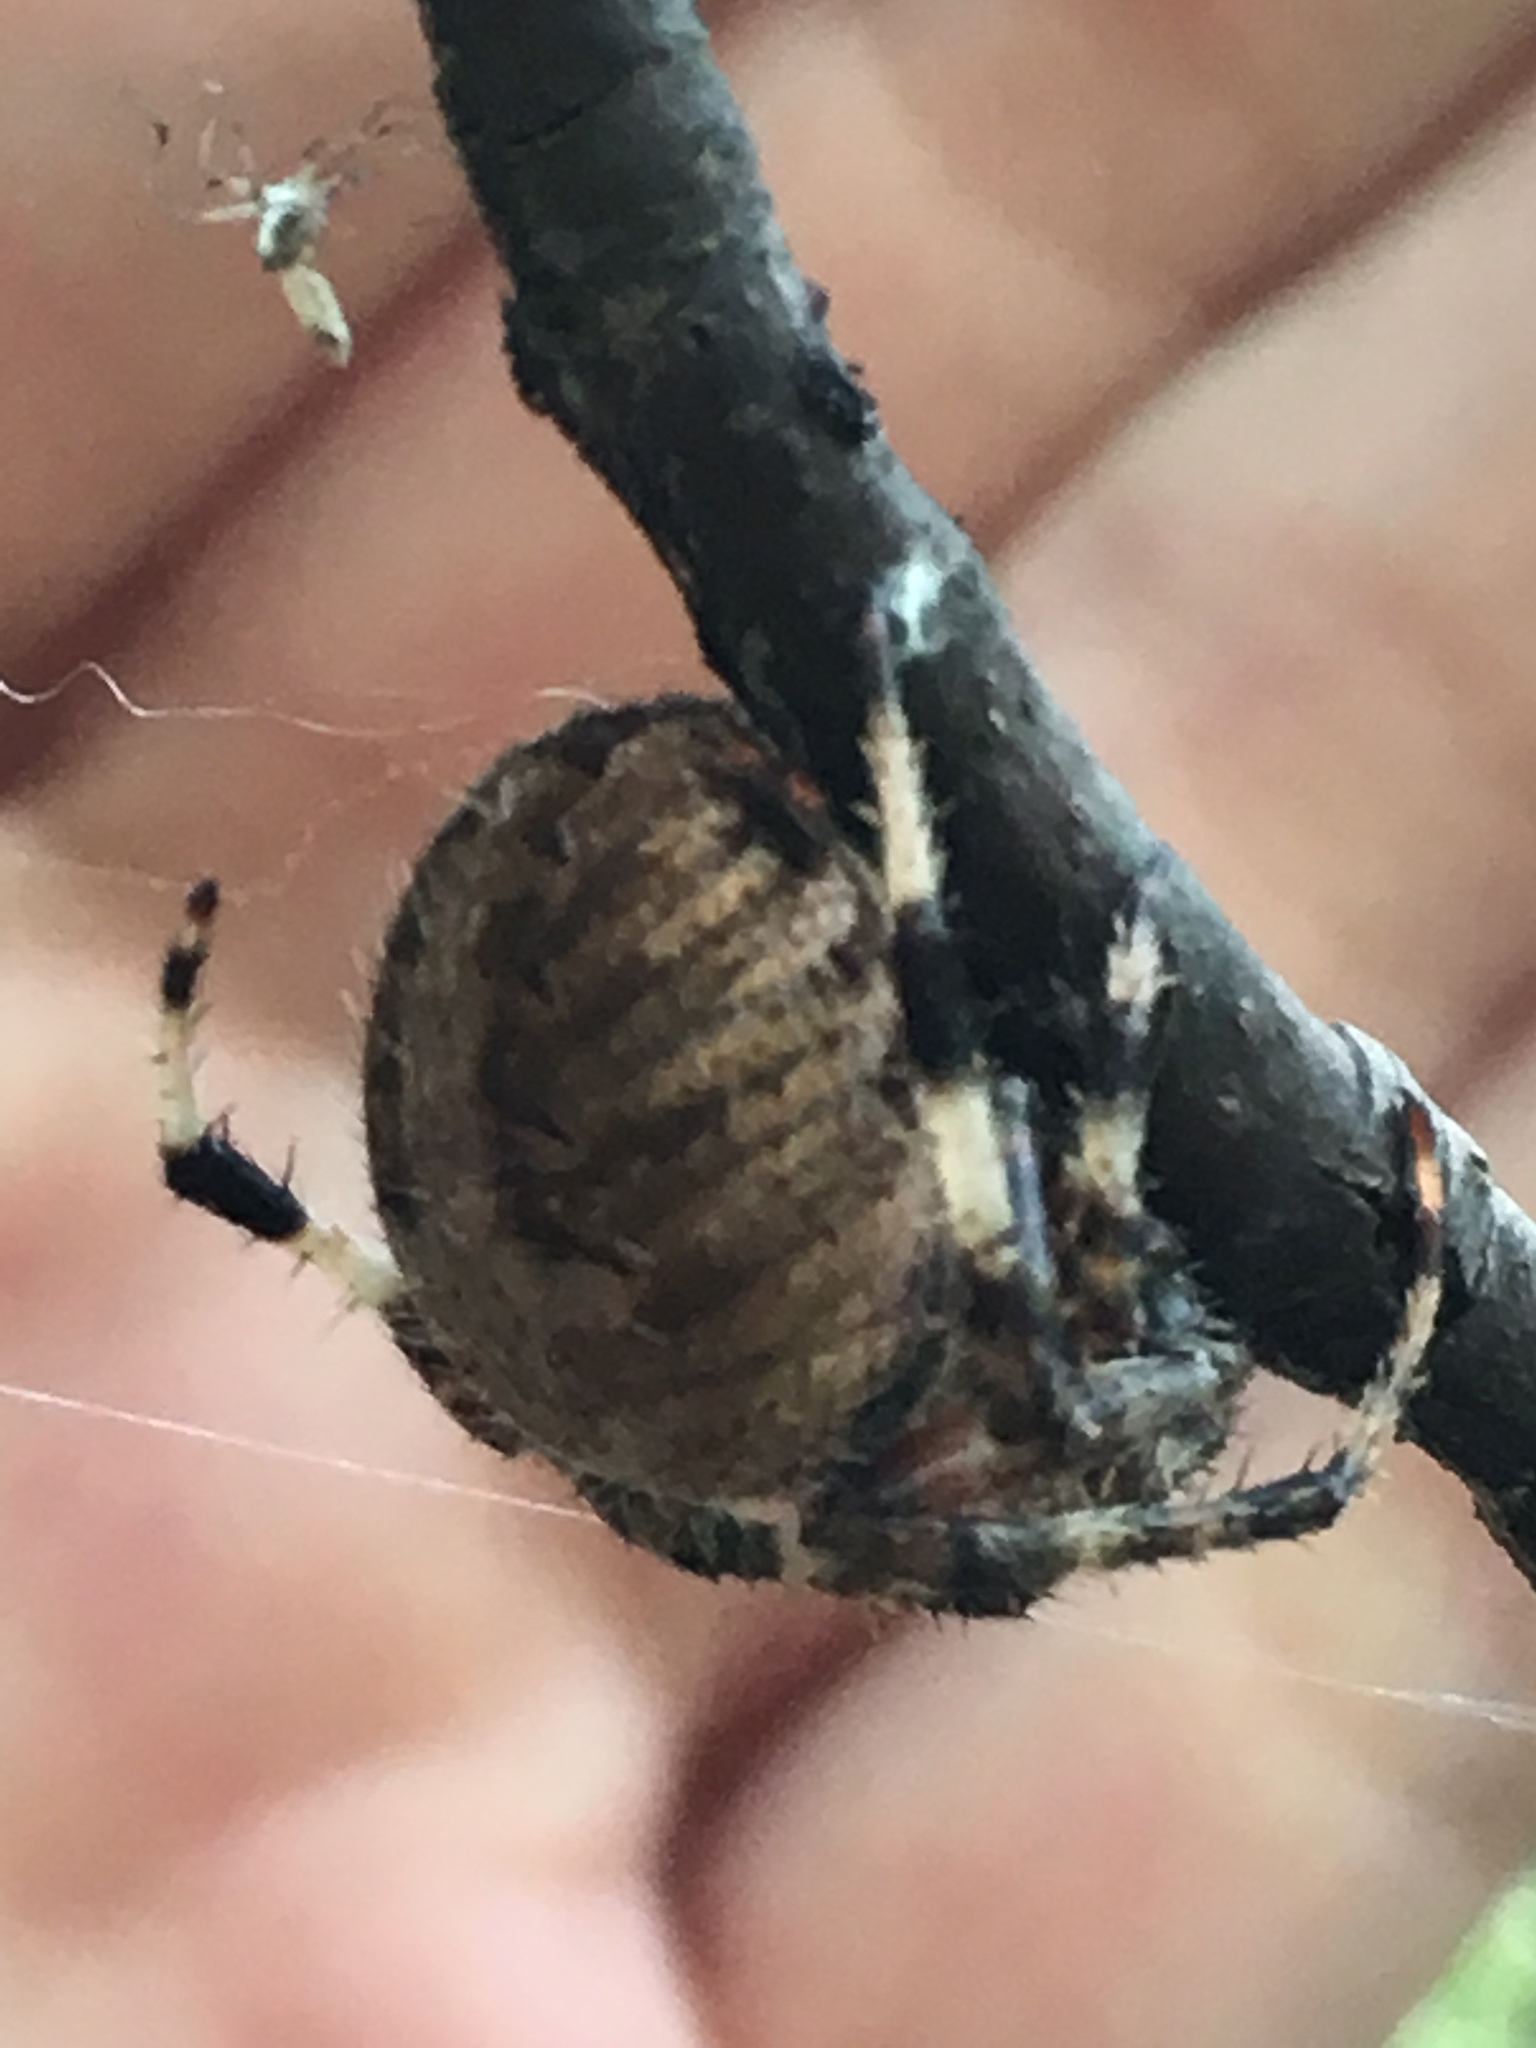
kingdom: Animalia
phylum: Arthropoda
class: Arachnida
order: Araneae
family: Araneidae
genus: Neoscona
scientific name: Neoscona crucifera
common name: Spotted orbweaver
